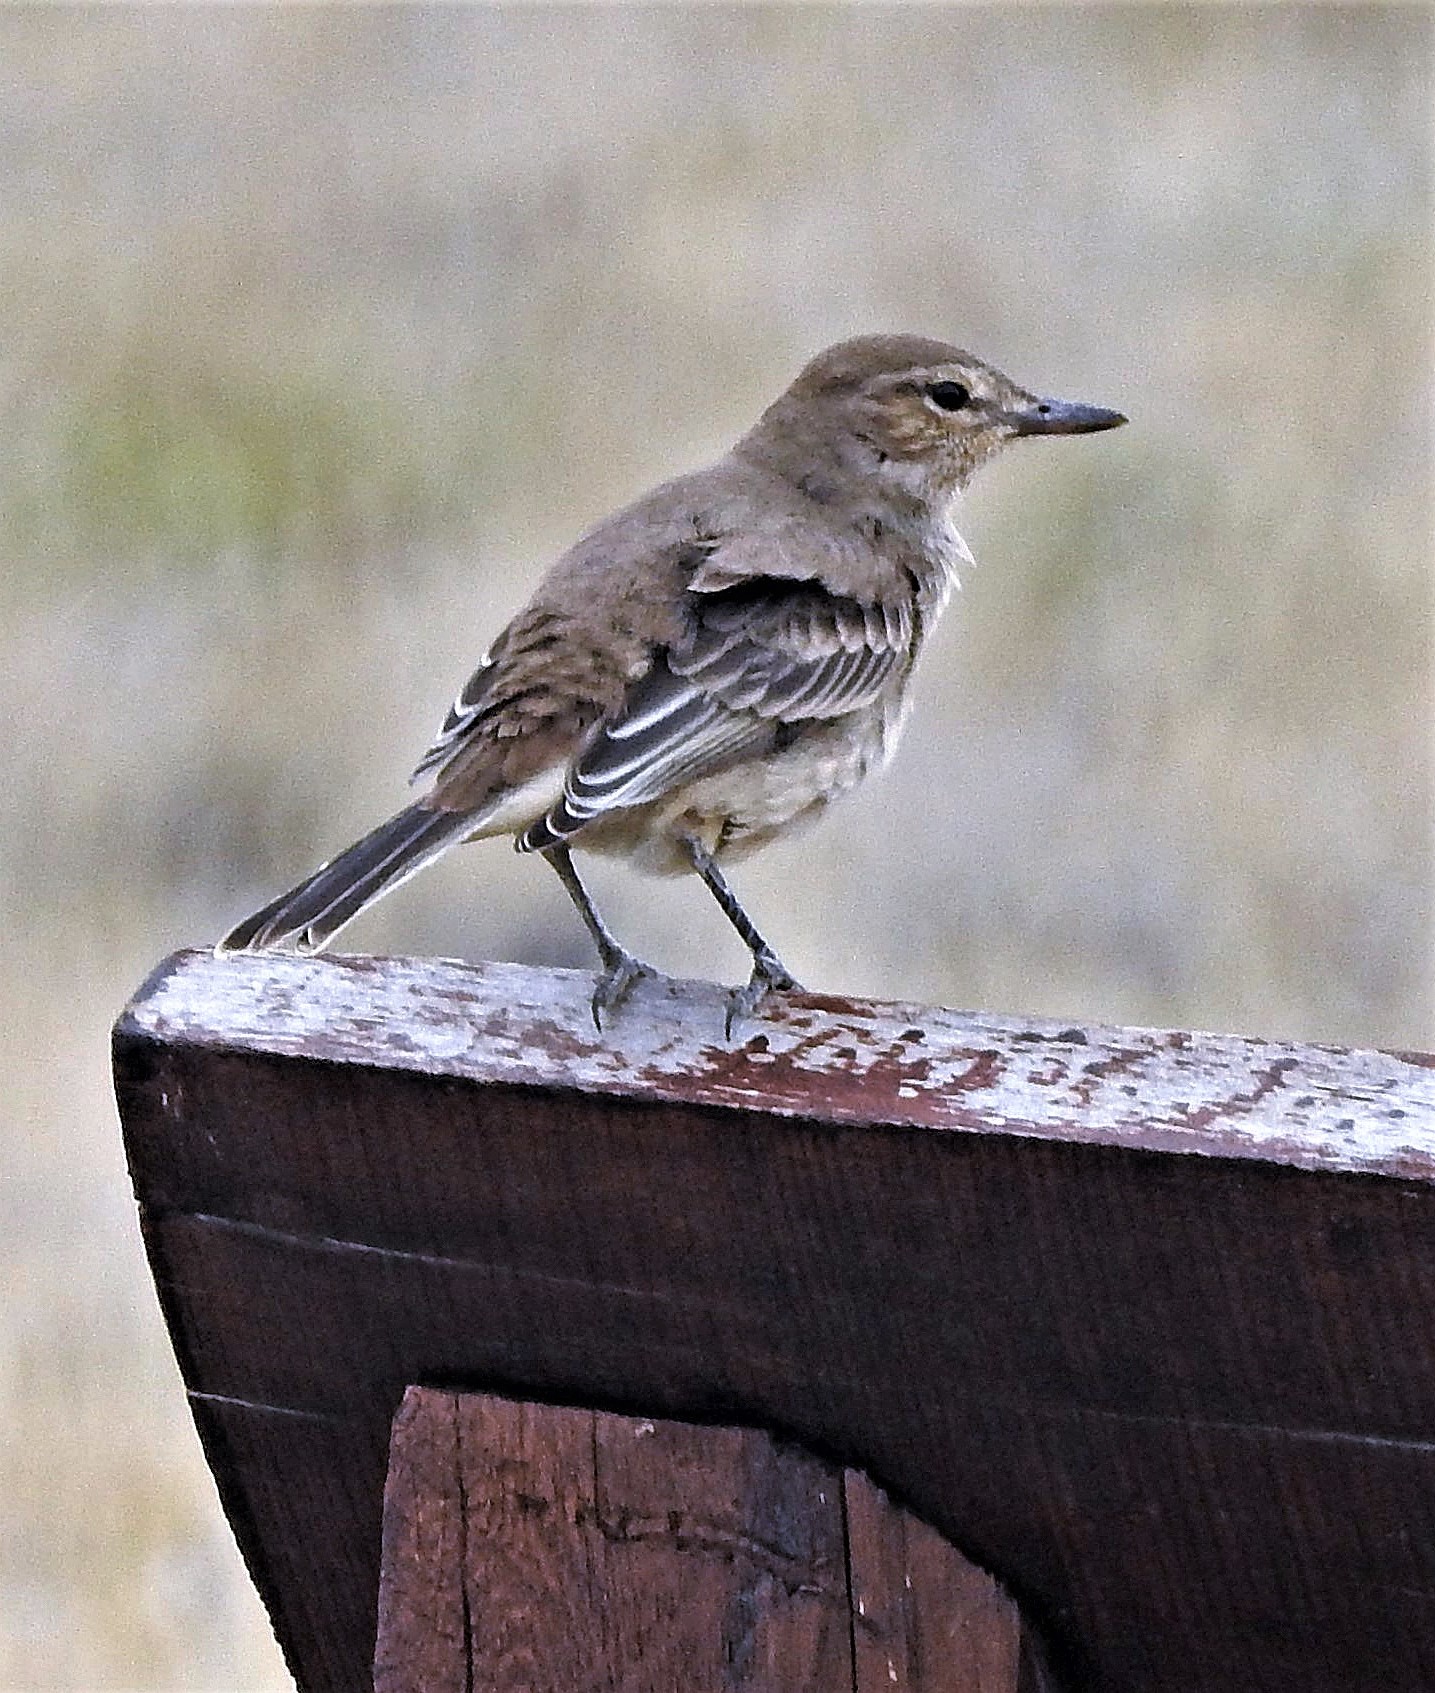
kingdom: Animalia
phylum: Chordata
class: Aves
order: Passeriformes
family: Tyrannidae
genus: Agriornis
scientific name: Agriornis micropterus
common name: Grey-bellied shrike-tyrant
